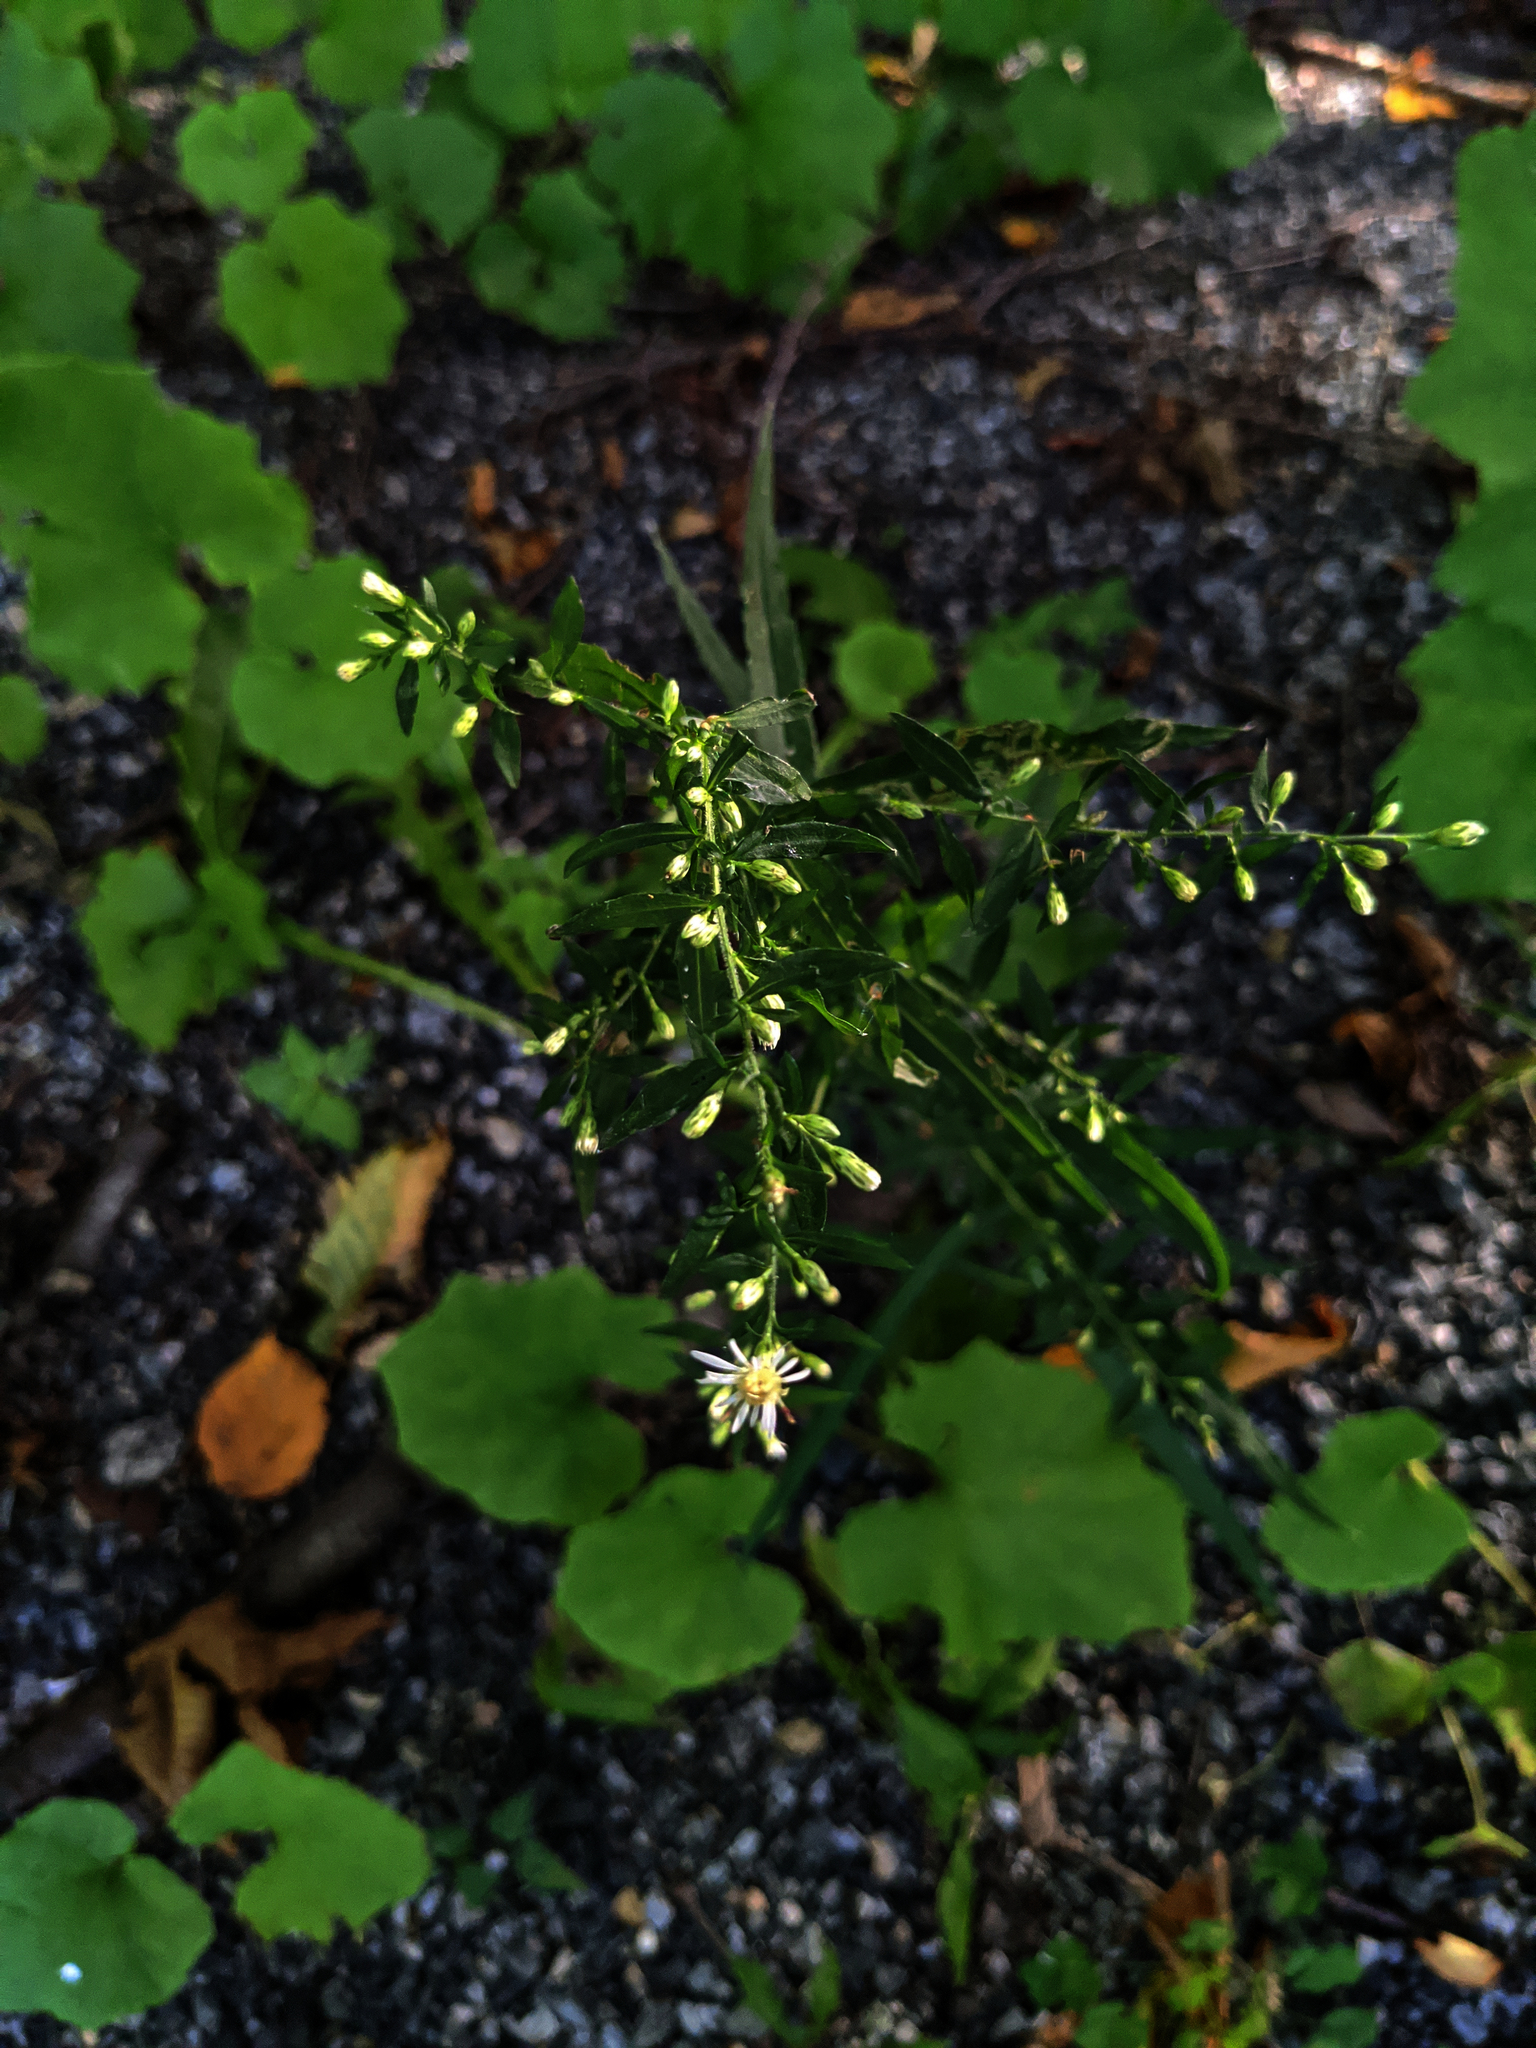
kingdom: Plantae
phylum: Tracheophyta
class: Magnoliopsida
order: Asterales
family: Asteraceae
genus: Tussilago
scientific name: Tussilago farfara
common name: Coltsfoot
